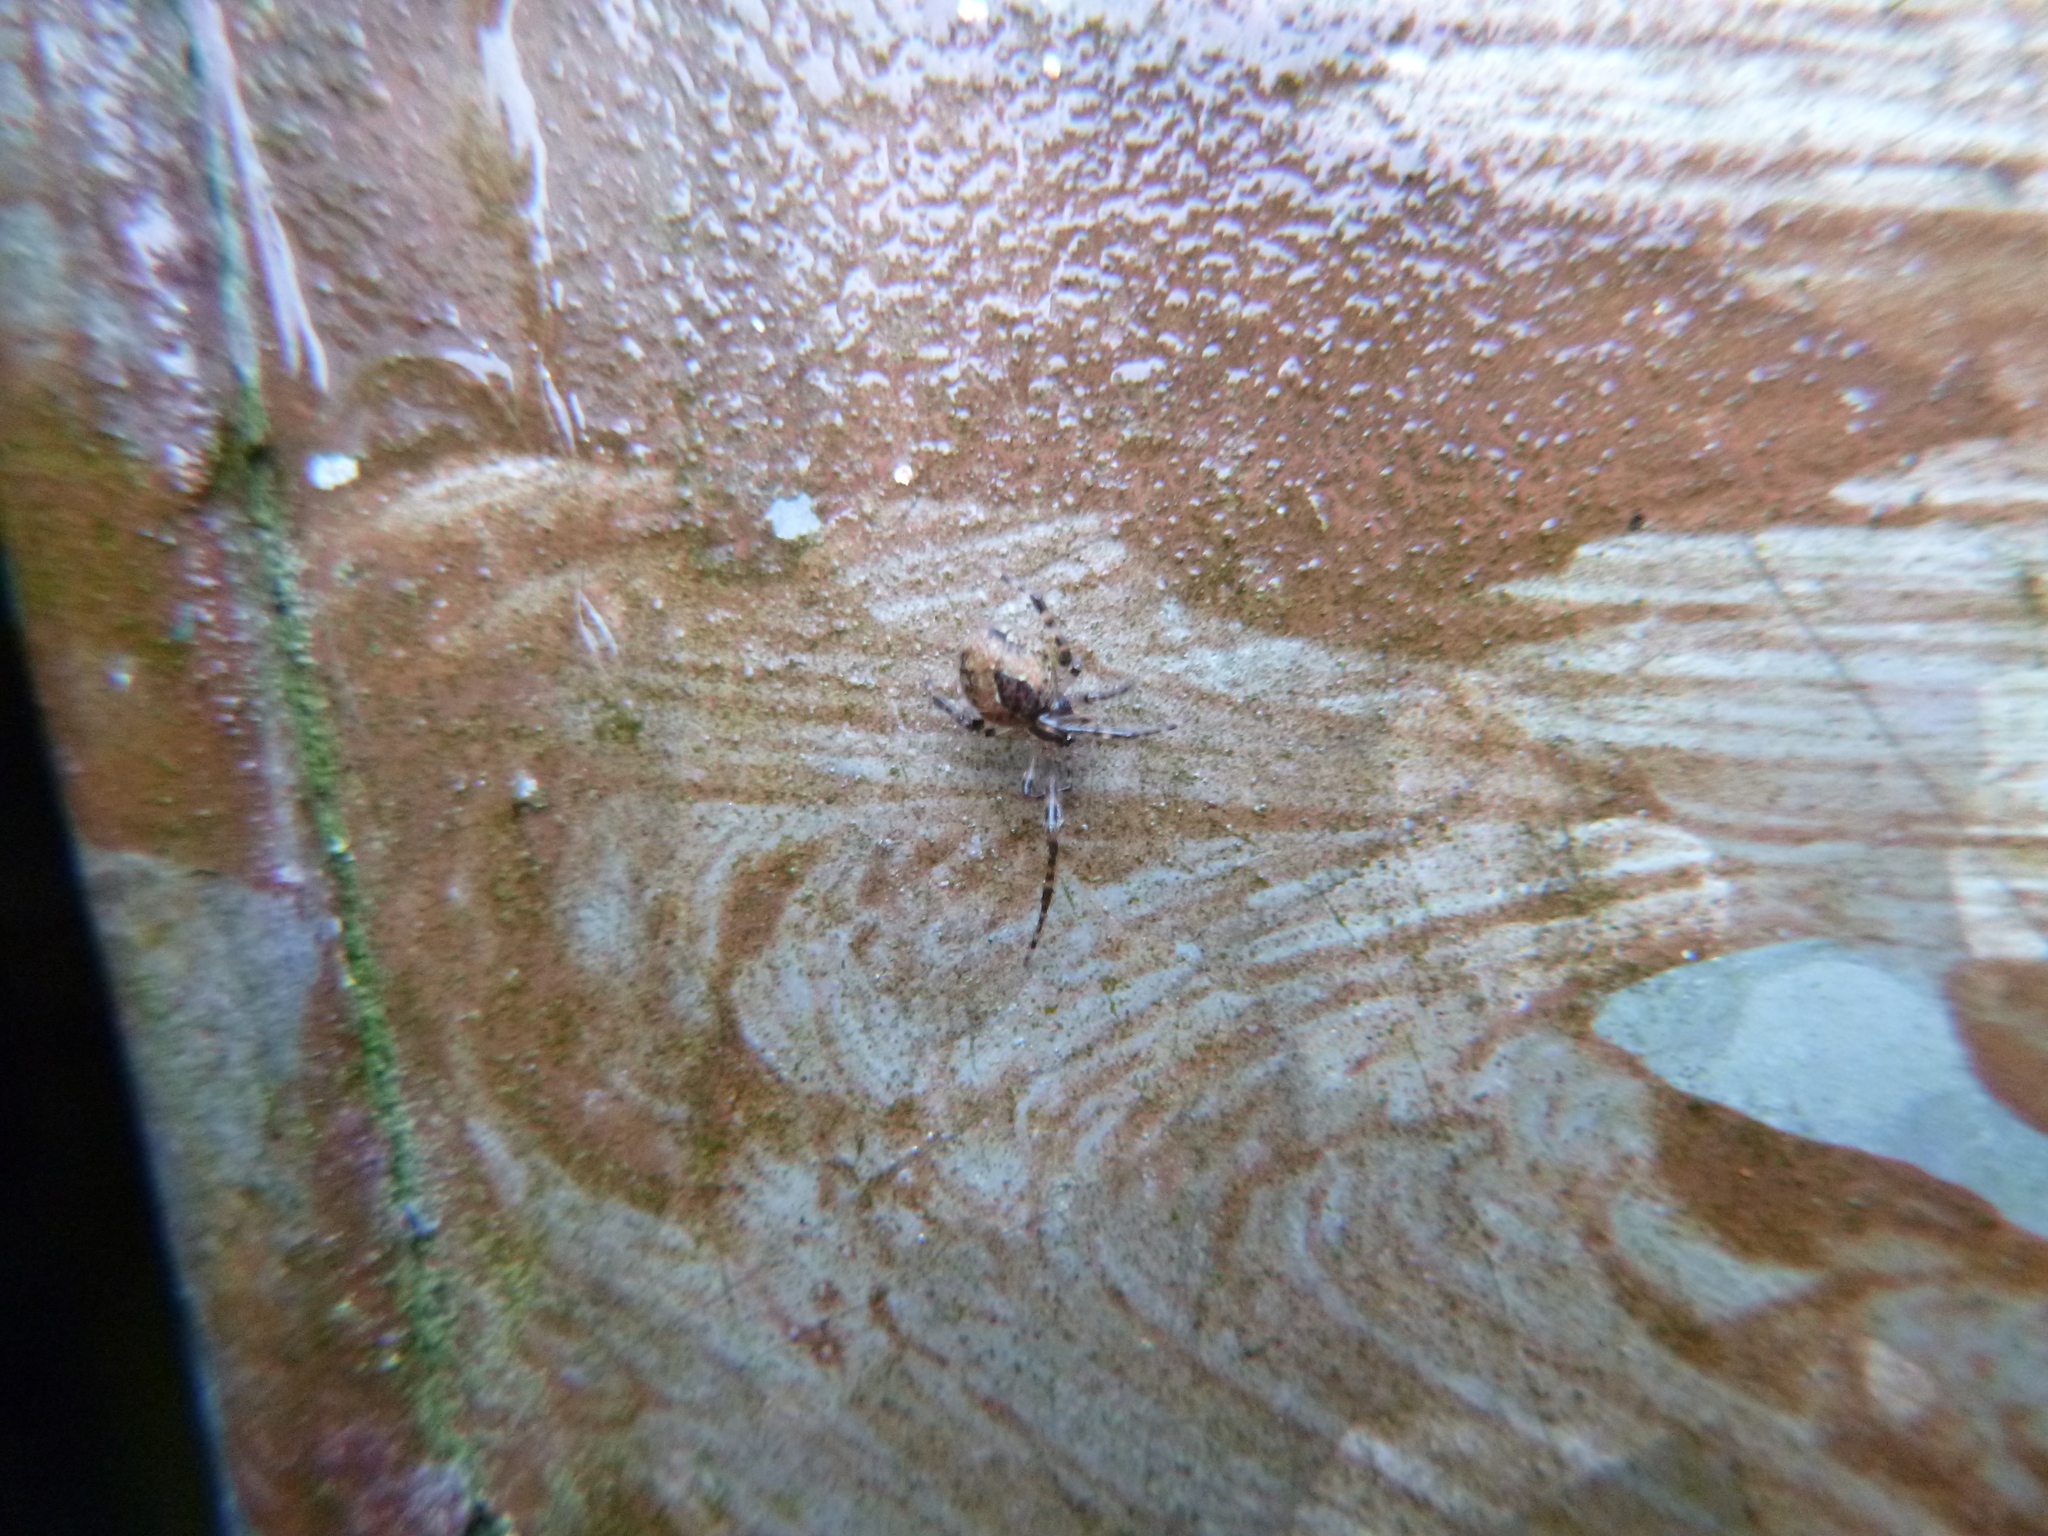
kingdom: Animalia
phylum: Arthropoda
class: Arachnida
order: Araneae
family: Theridiidae
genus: Cryptachaea
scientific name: Cryptachaea veruculata
